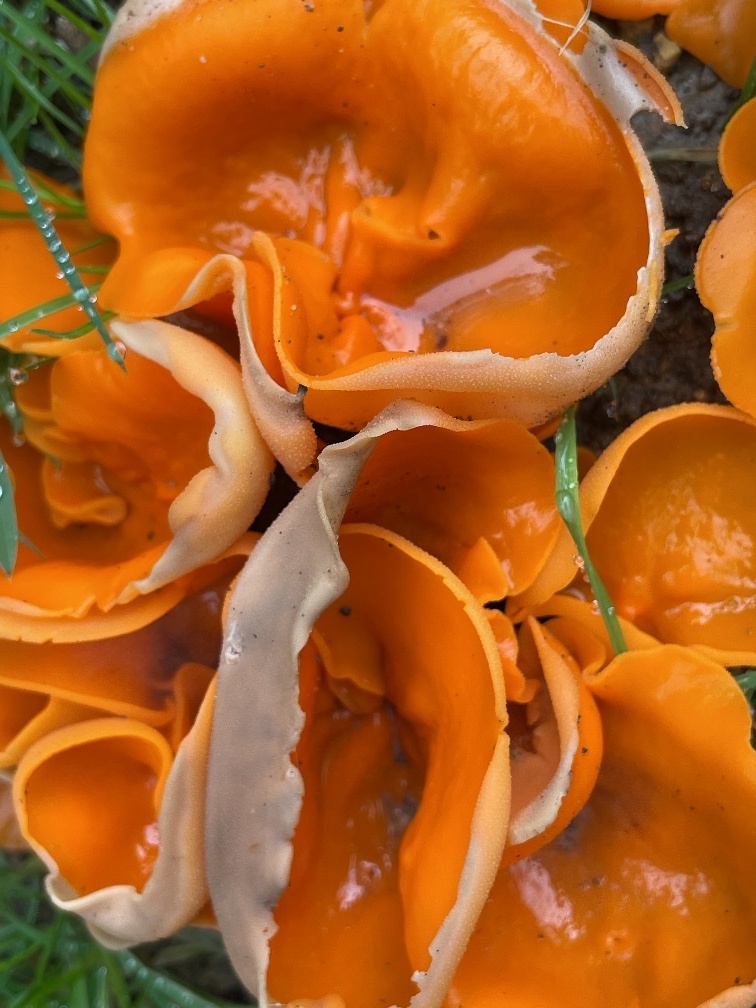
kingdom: Fungi
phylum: Ascomycota
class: Pezizomycetes
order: Pezizales
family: Pyronemataceae
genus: Aleuria
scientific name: Aleuria aurantia
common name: Orange peel fungus
